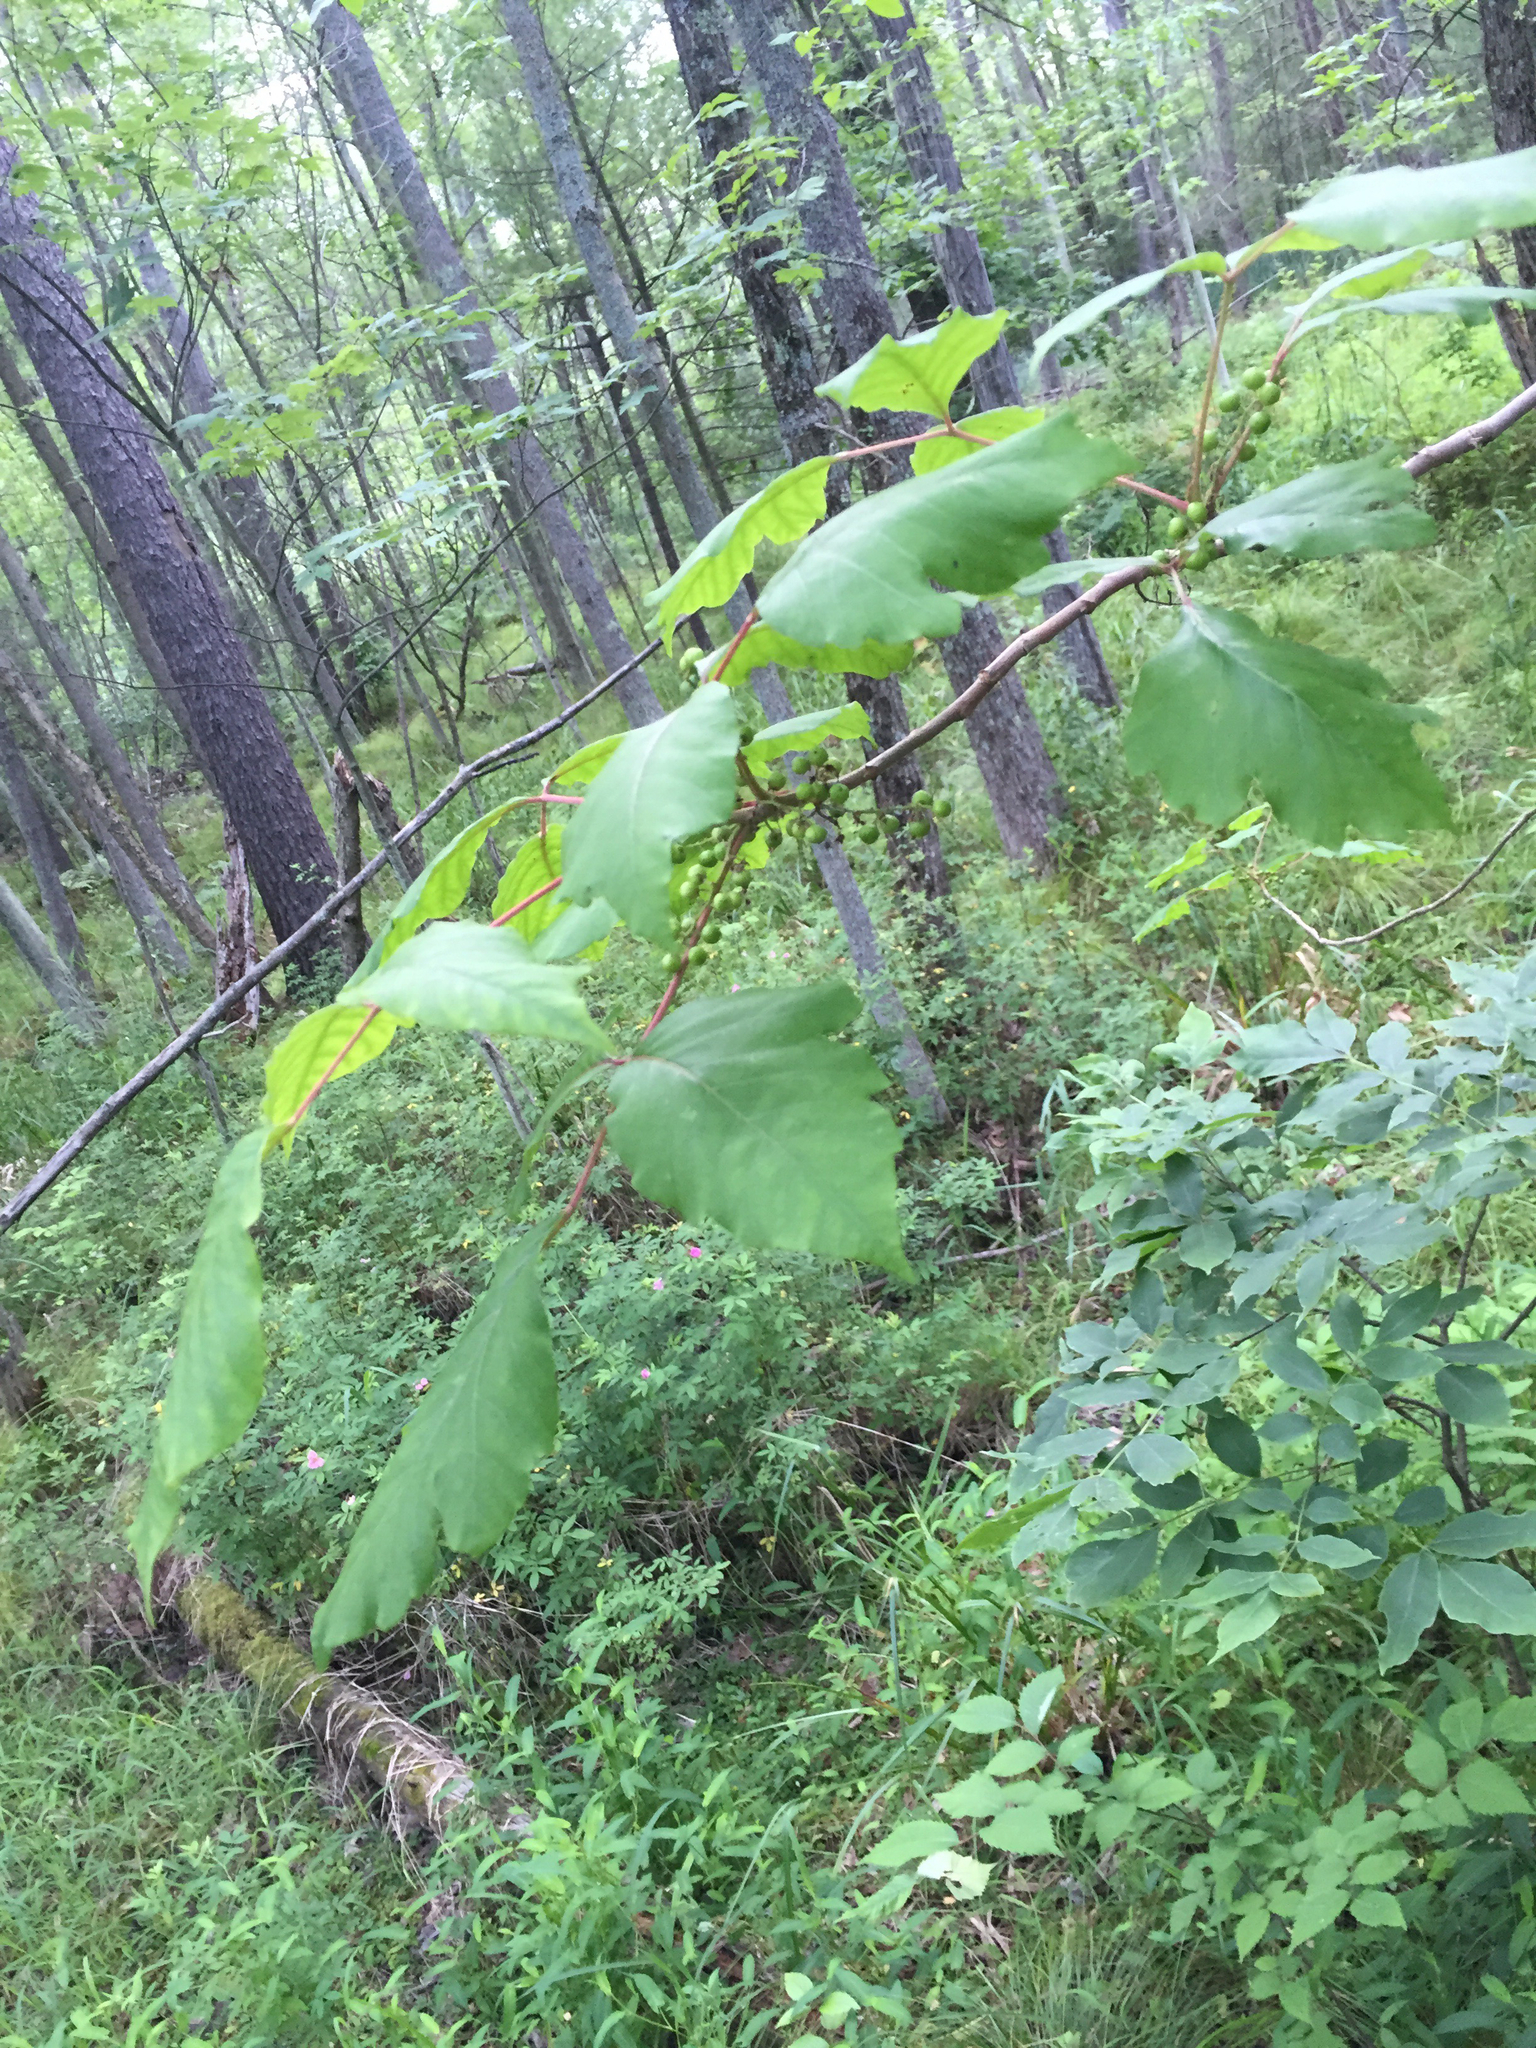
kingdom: Plantae
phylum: Tracheophyta
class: Magnoliopsida
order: Sapindales
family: Anacardiaceae
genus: Toxicodendron
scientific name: Toxicodendron radicans
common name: Poison ivy
